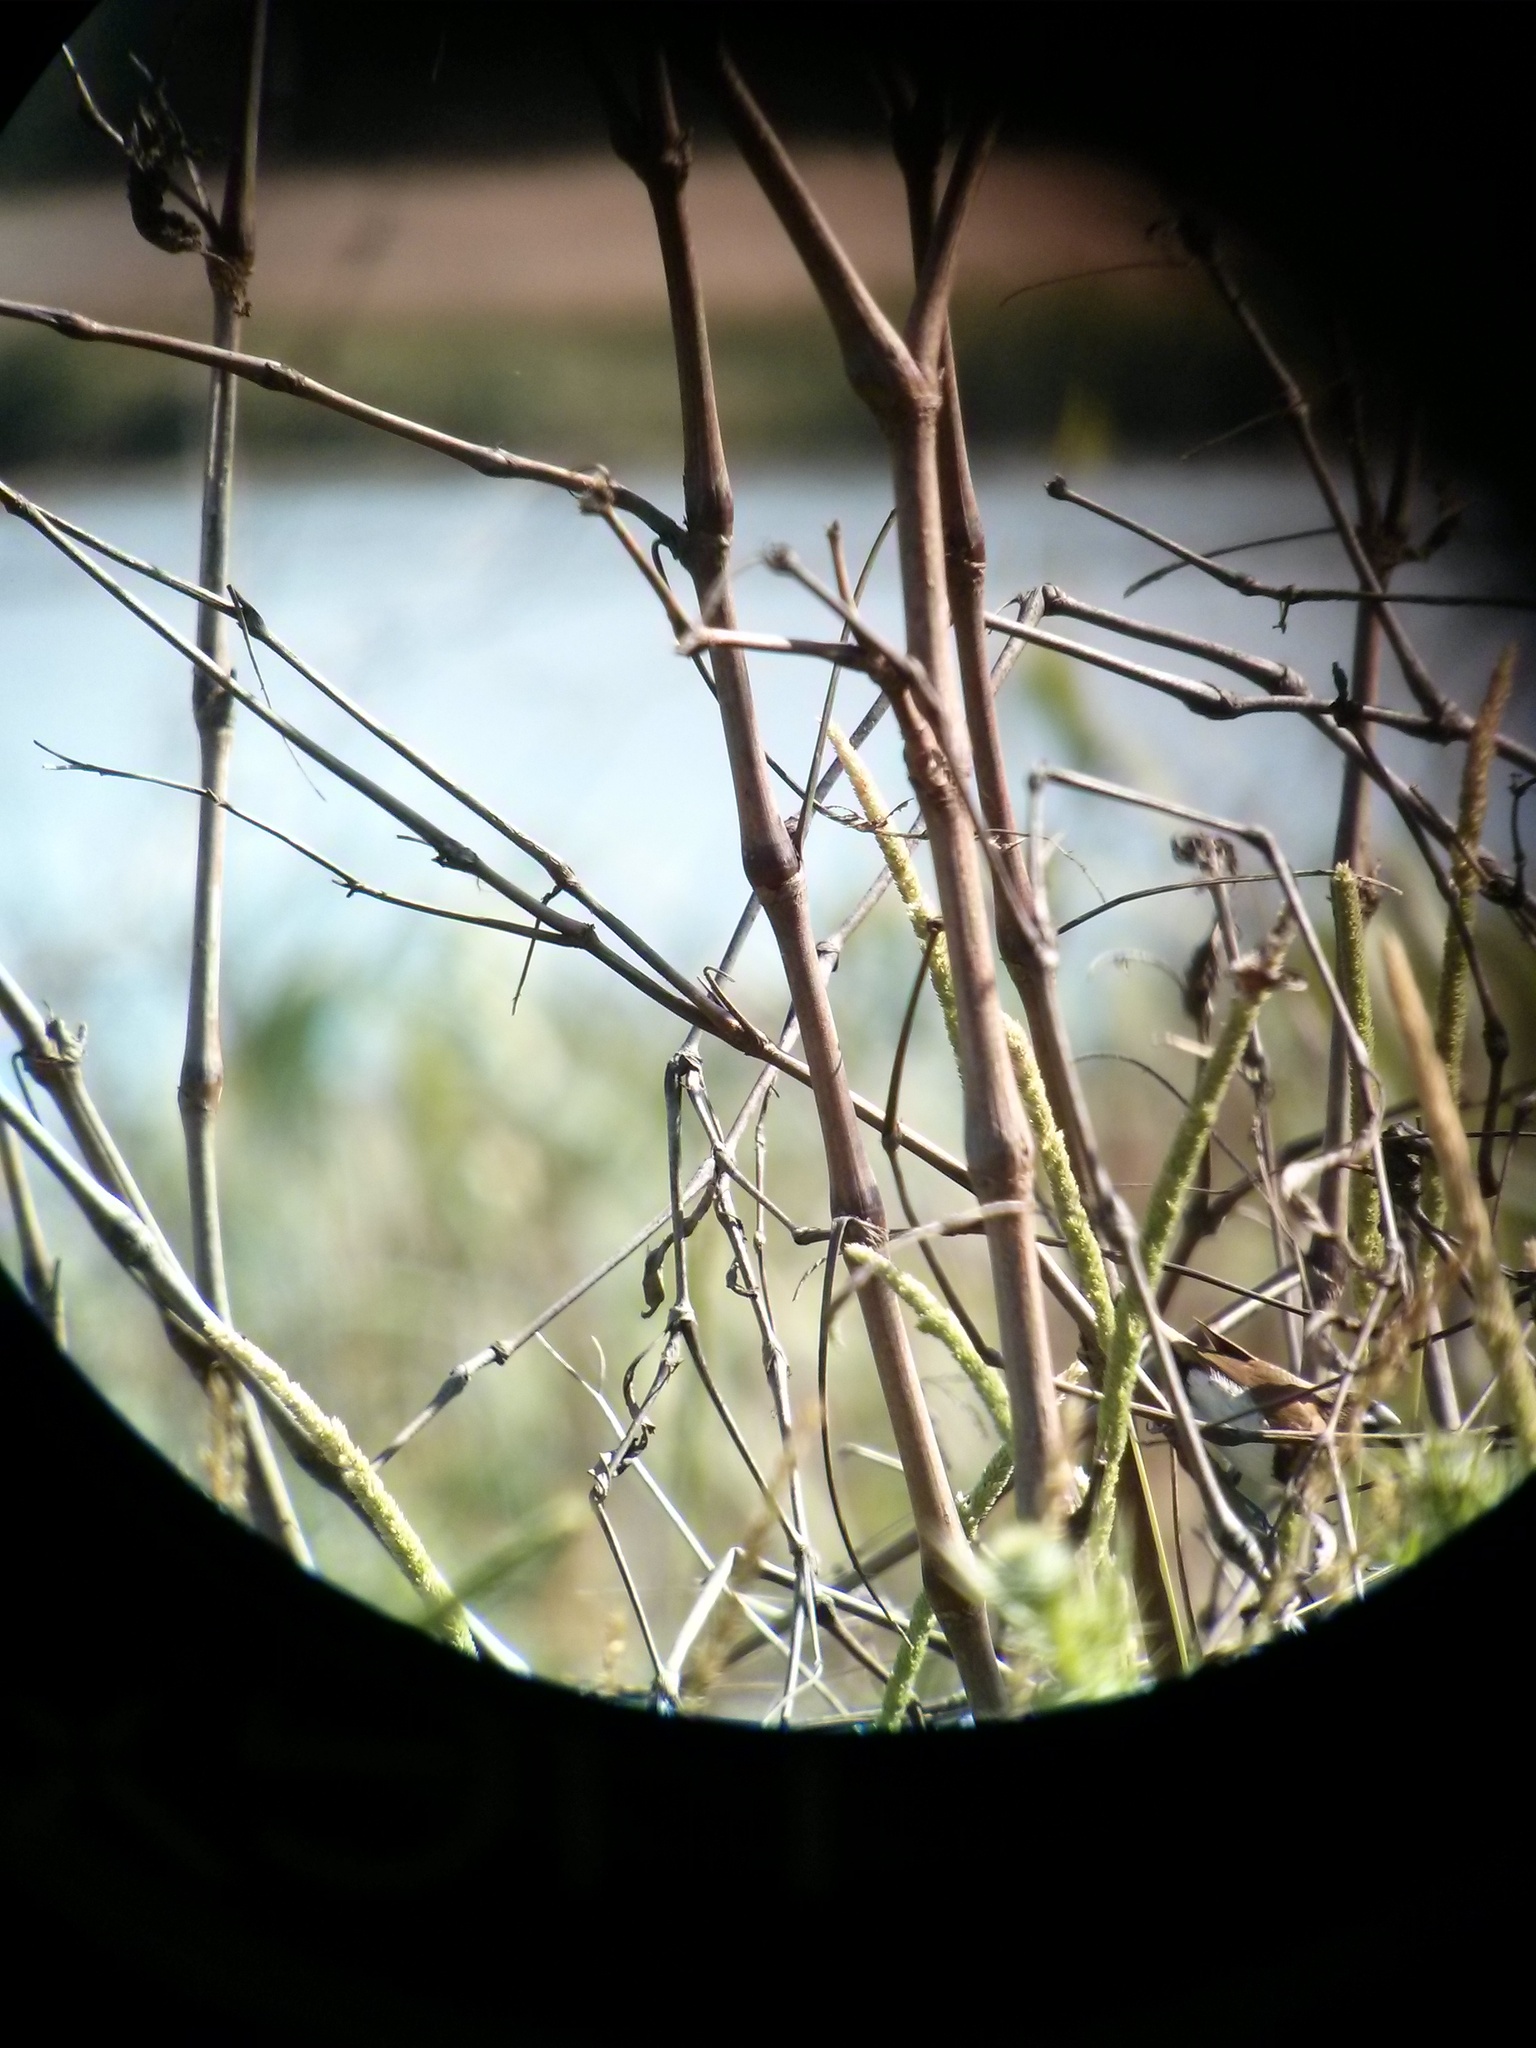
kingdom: Animalia
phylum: Chordata
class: Aves
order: Passeriformes
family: Estrildidae
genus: Lonchura
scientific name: Lonchura castaneothorax
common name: Chestnut-breasted mannikin
